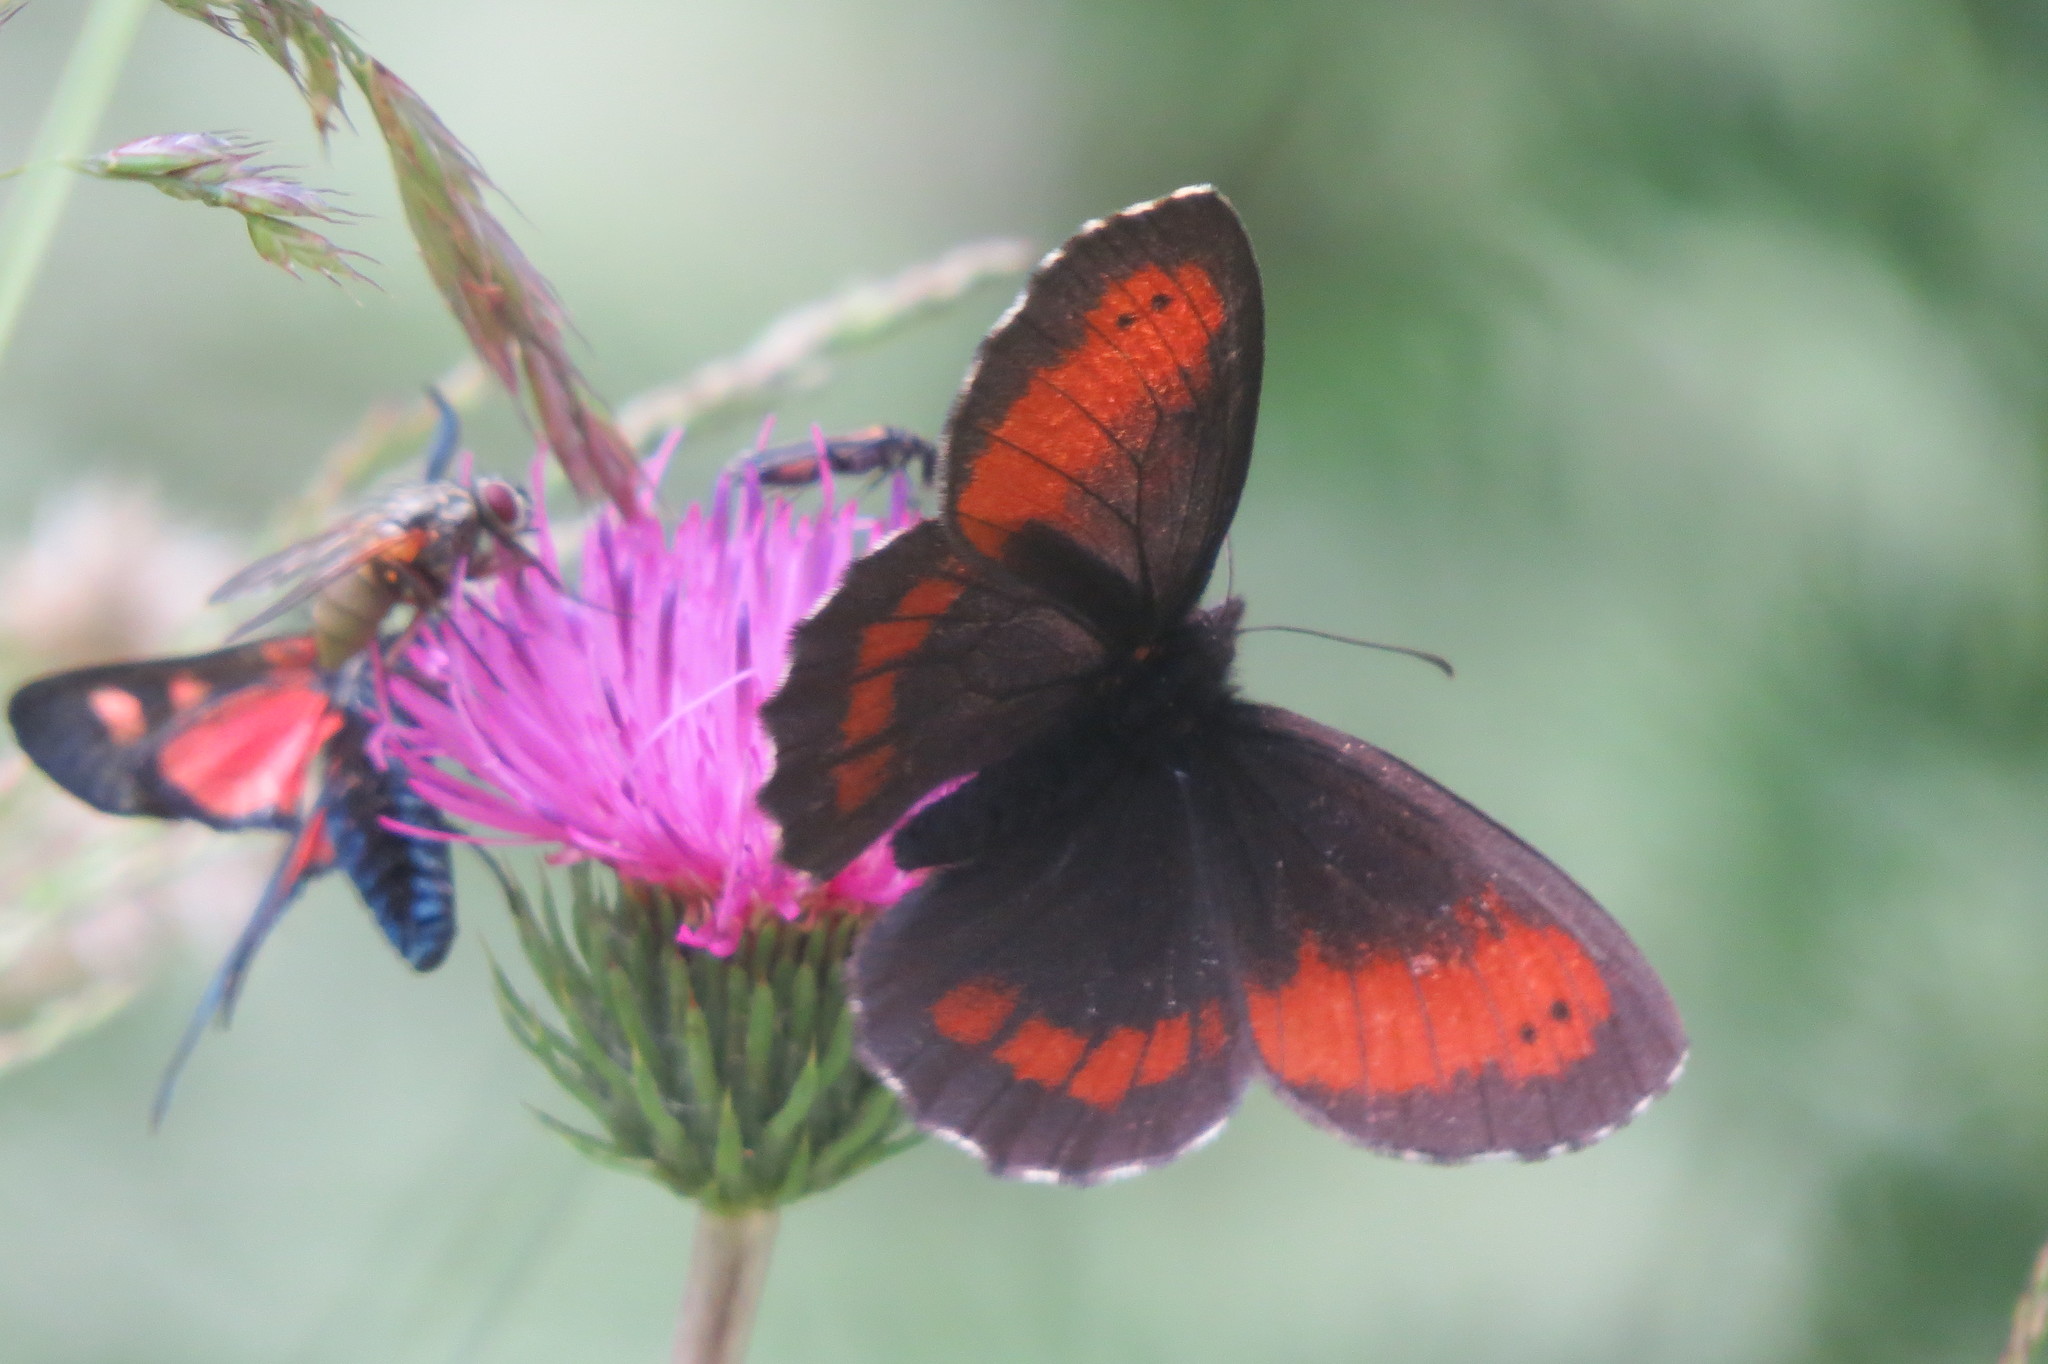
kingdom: Animalia
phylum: Arthropoda
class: Insecta
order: Lepidoptera
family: Nymphalidae
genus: Erebia
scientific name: Erebia euryale
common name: Large ringlet
